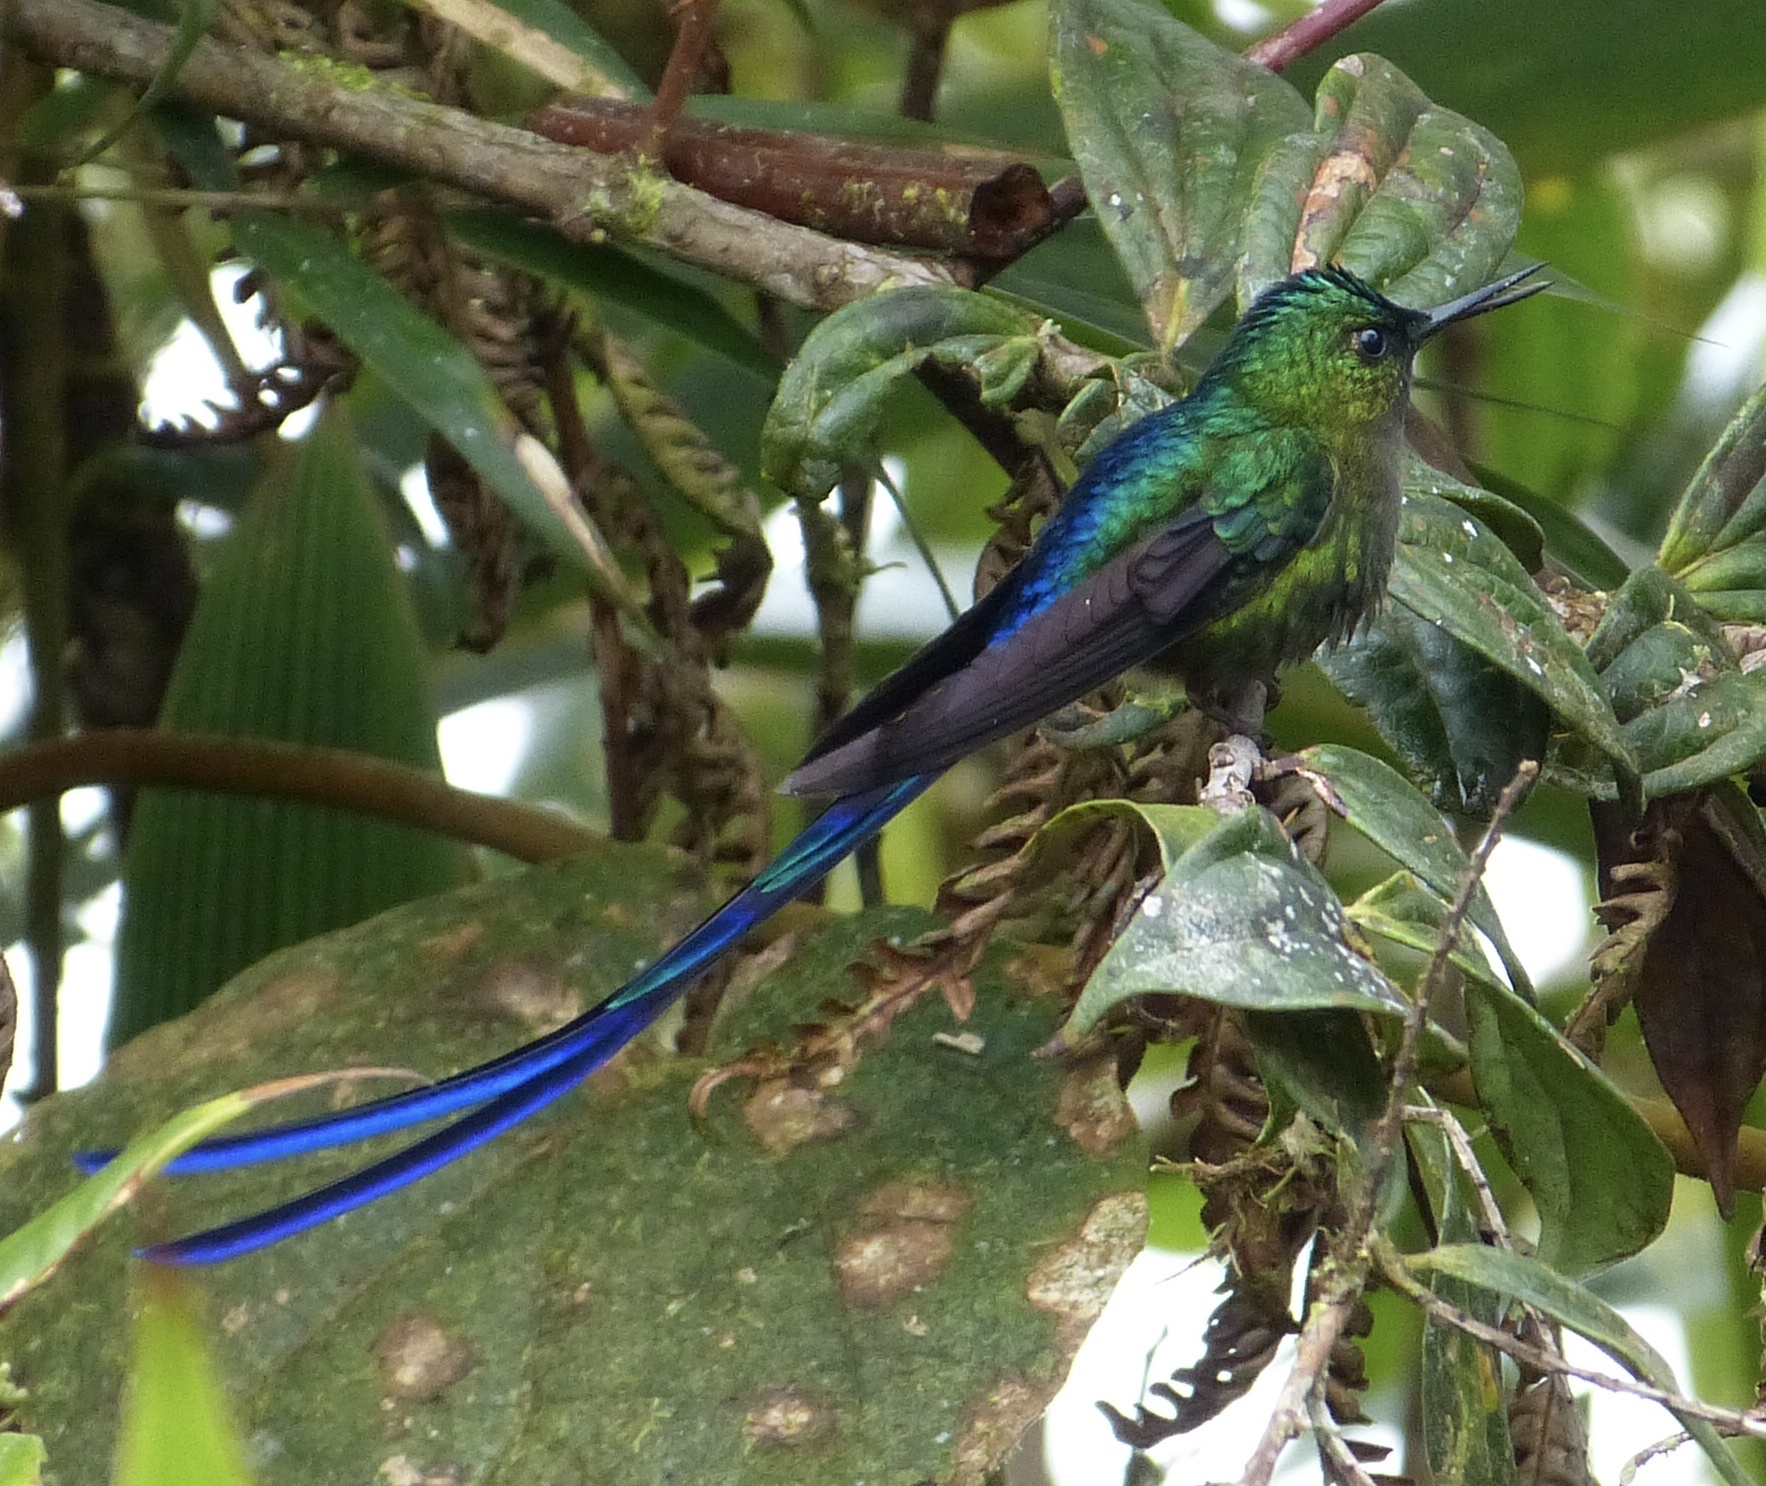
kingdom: Animalia
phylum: Chordata
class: Aves
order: Apodiformes
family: Trochilidae
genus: Aglaiocercus
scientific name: Aglaiocercus coelestis
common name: Violet-tailed sylph
